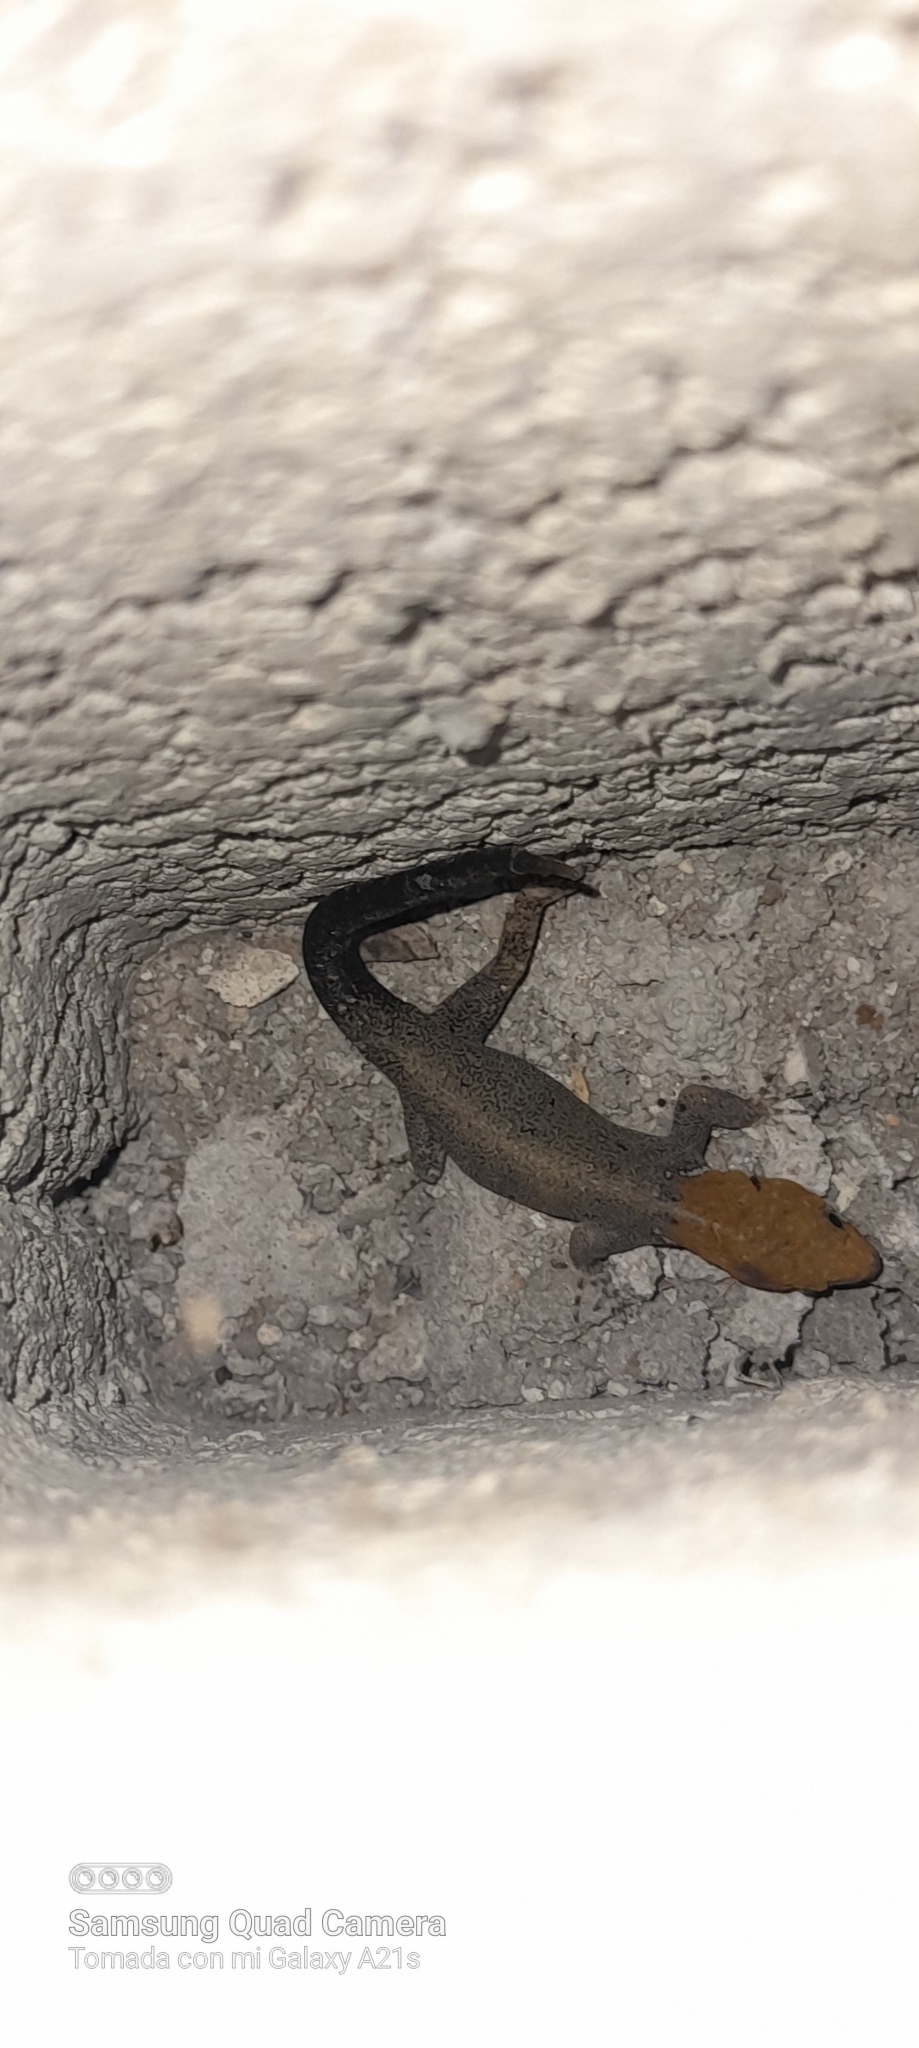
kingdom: Animalia
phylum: Chordata
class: Squamata
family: Sphaerodactylidae
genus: Gonatodes
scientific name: Gonatodes albogularis
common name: Yellow-headed gecko
